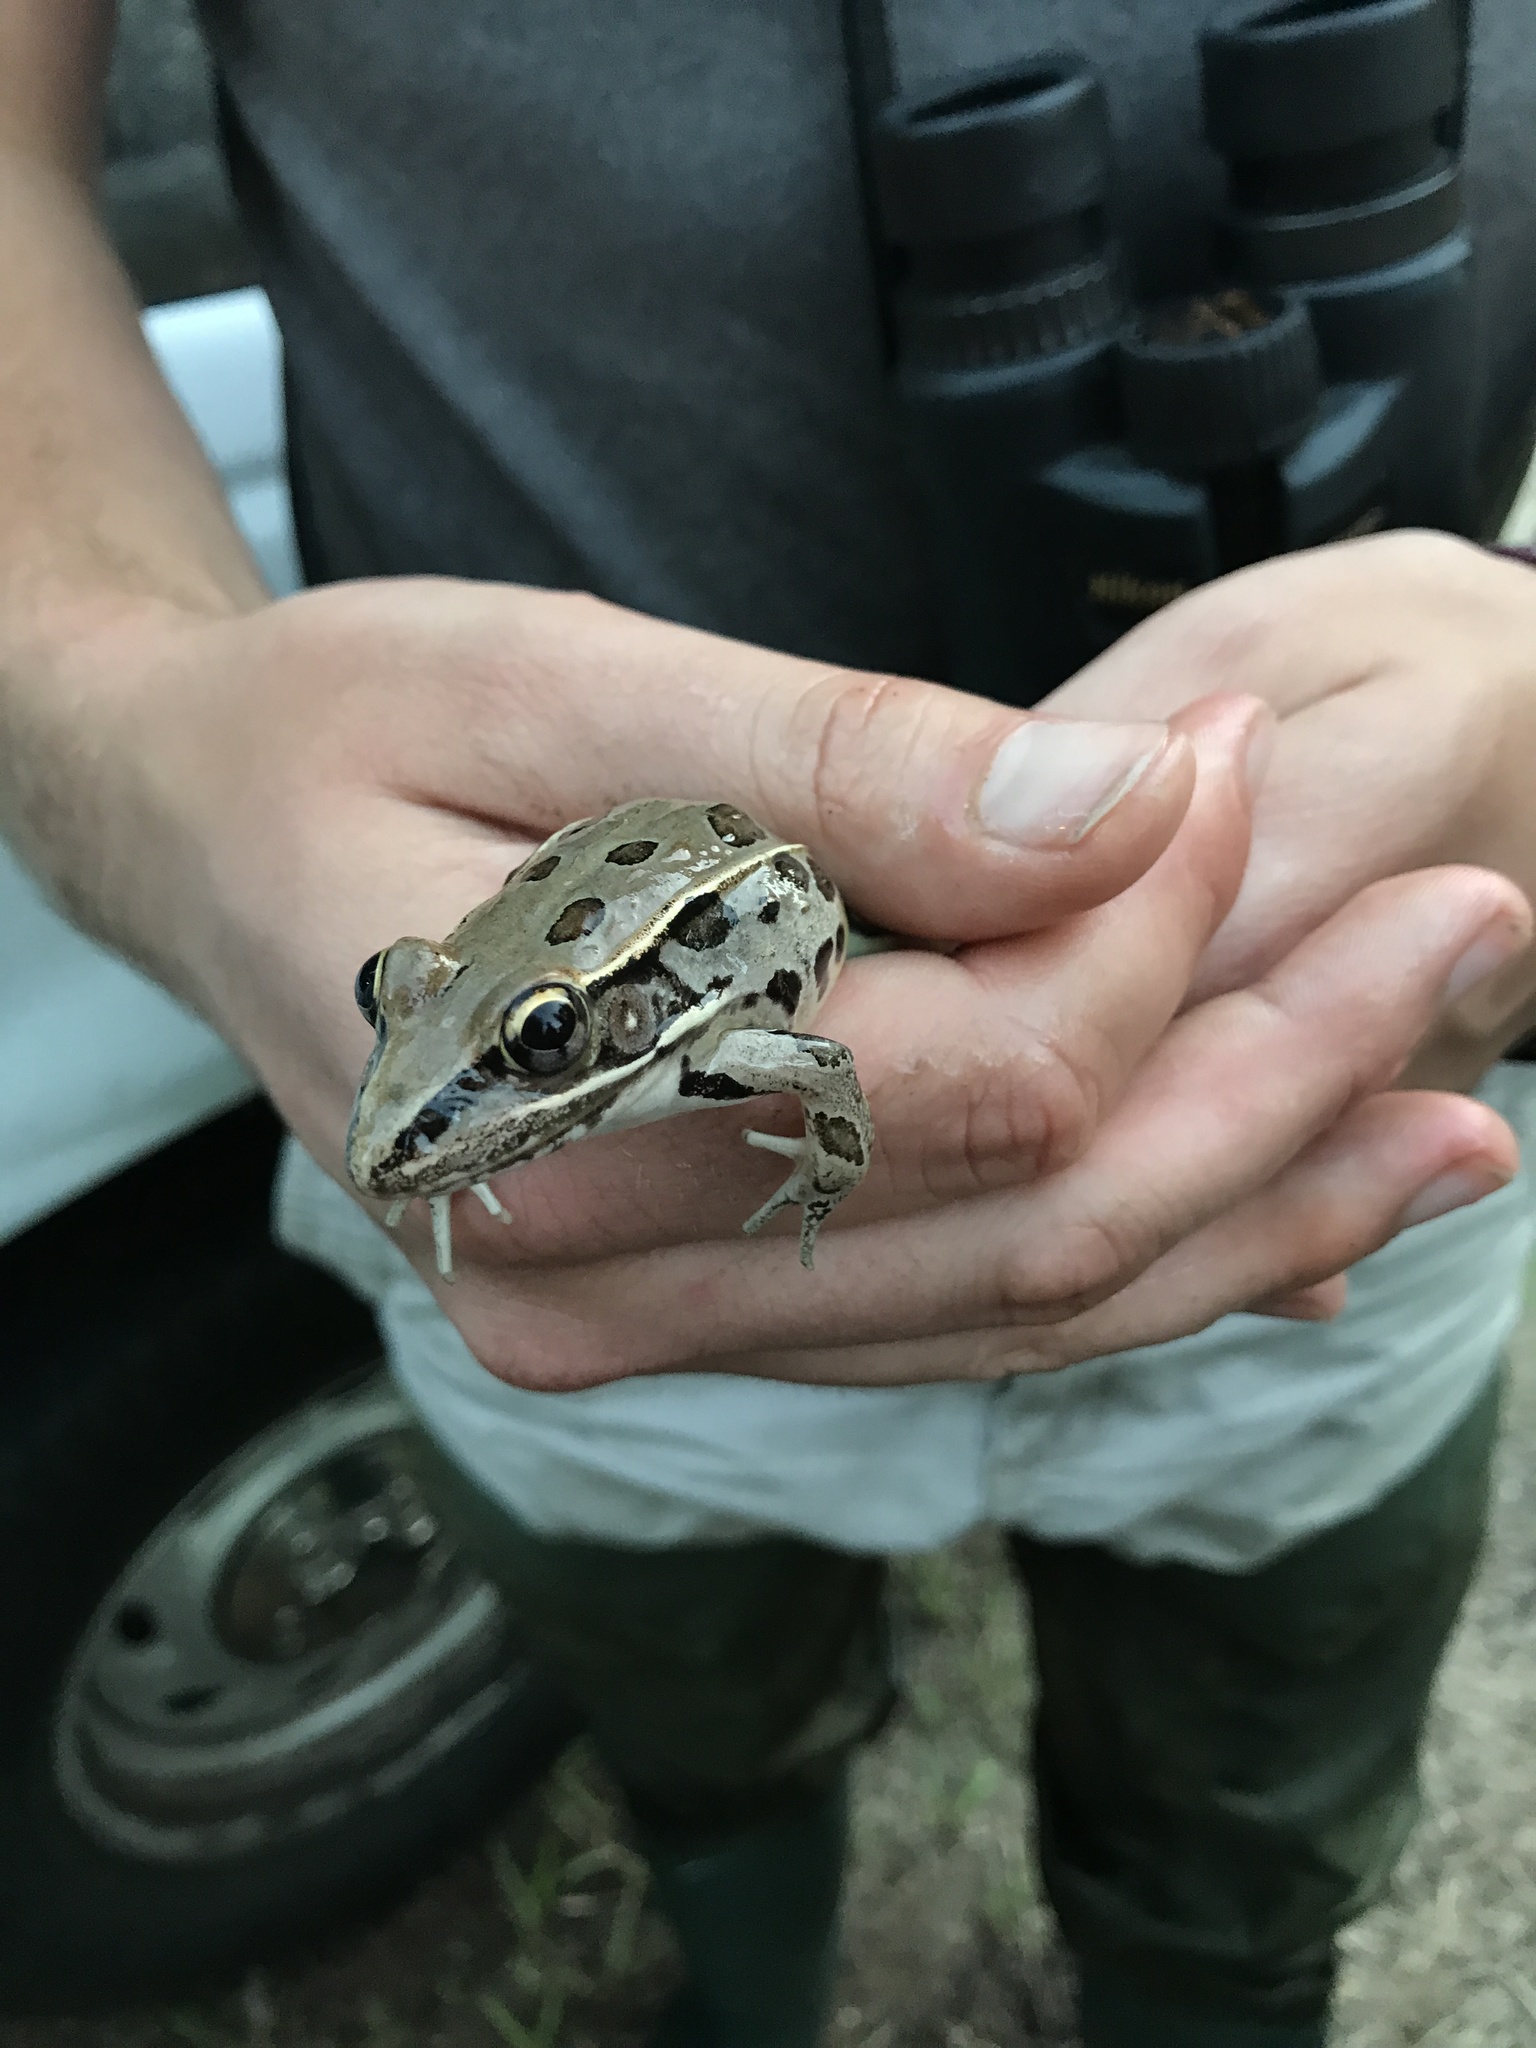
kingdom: Animalia
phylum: Chordata
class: Amphibia
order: Anura
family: Ranidae
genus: Lithobates
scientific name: Lithobates sphenocephalus
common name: Southern leopard frog
